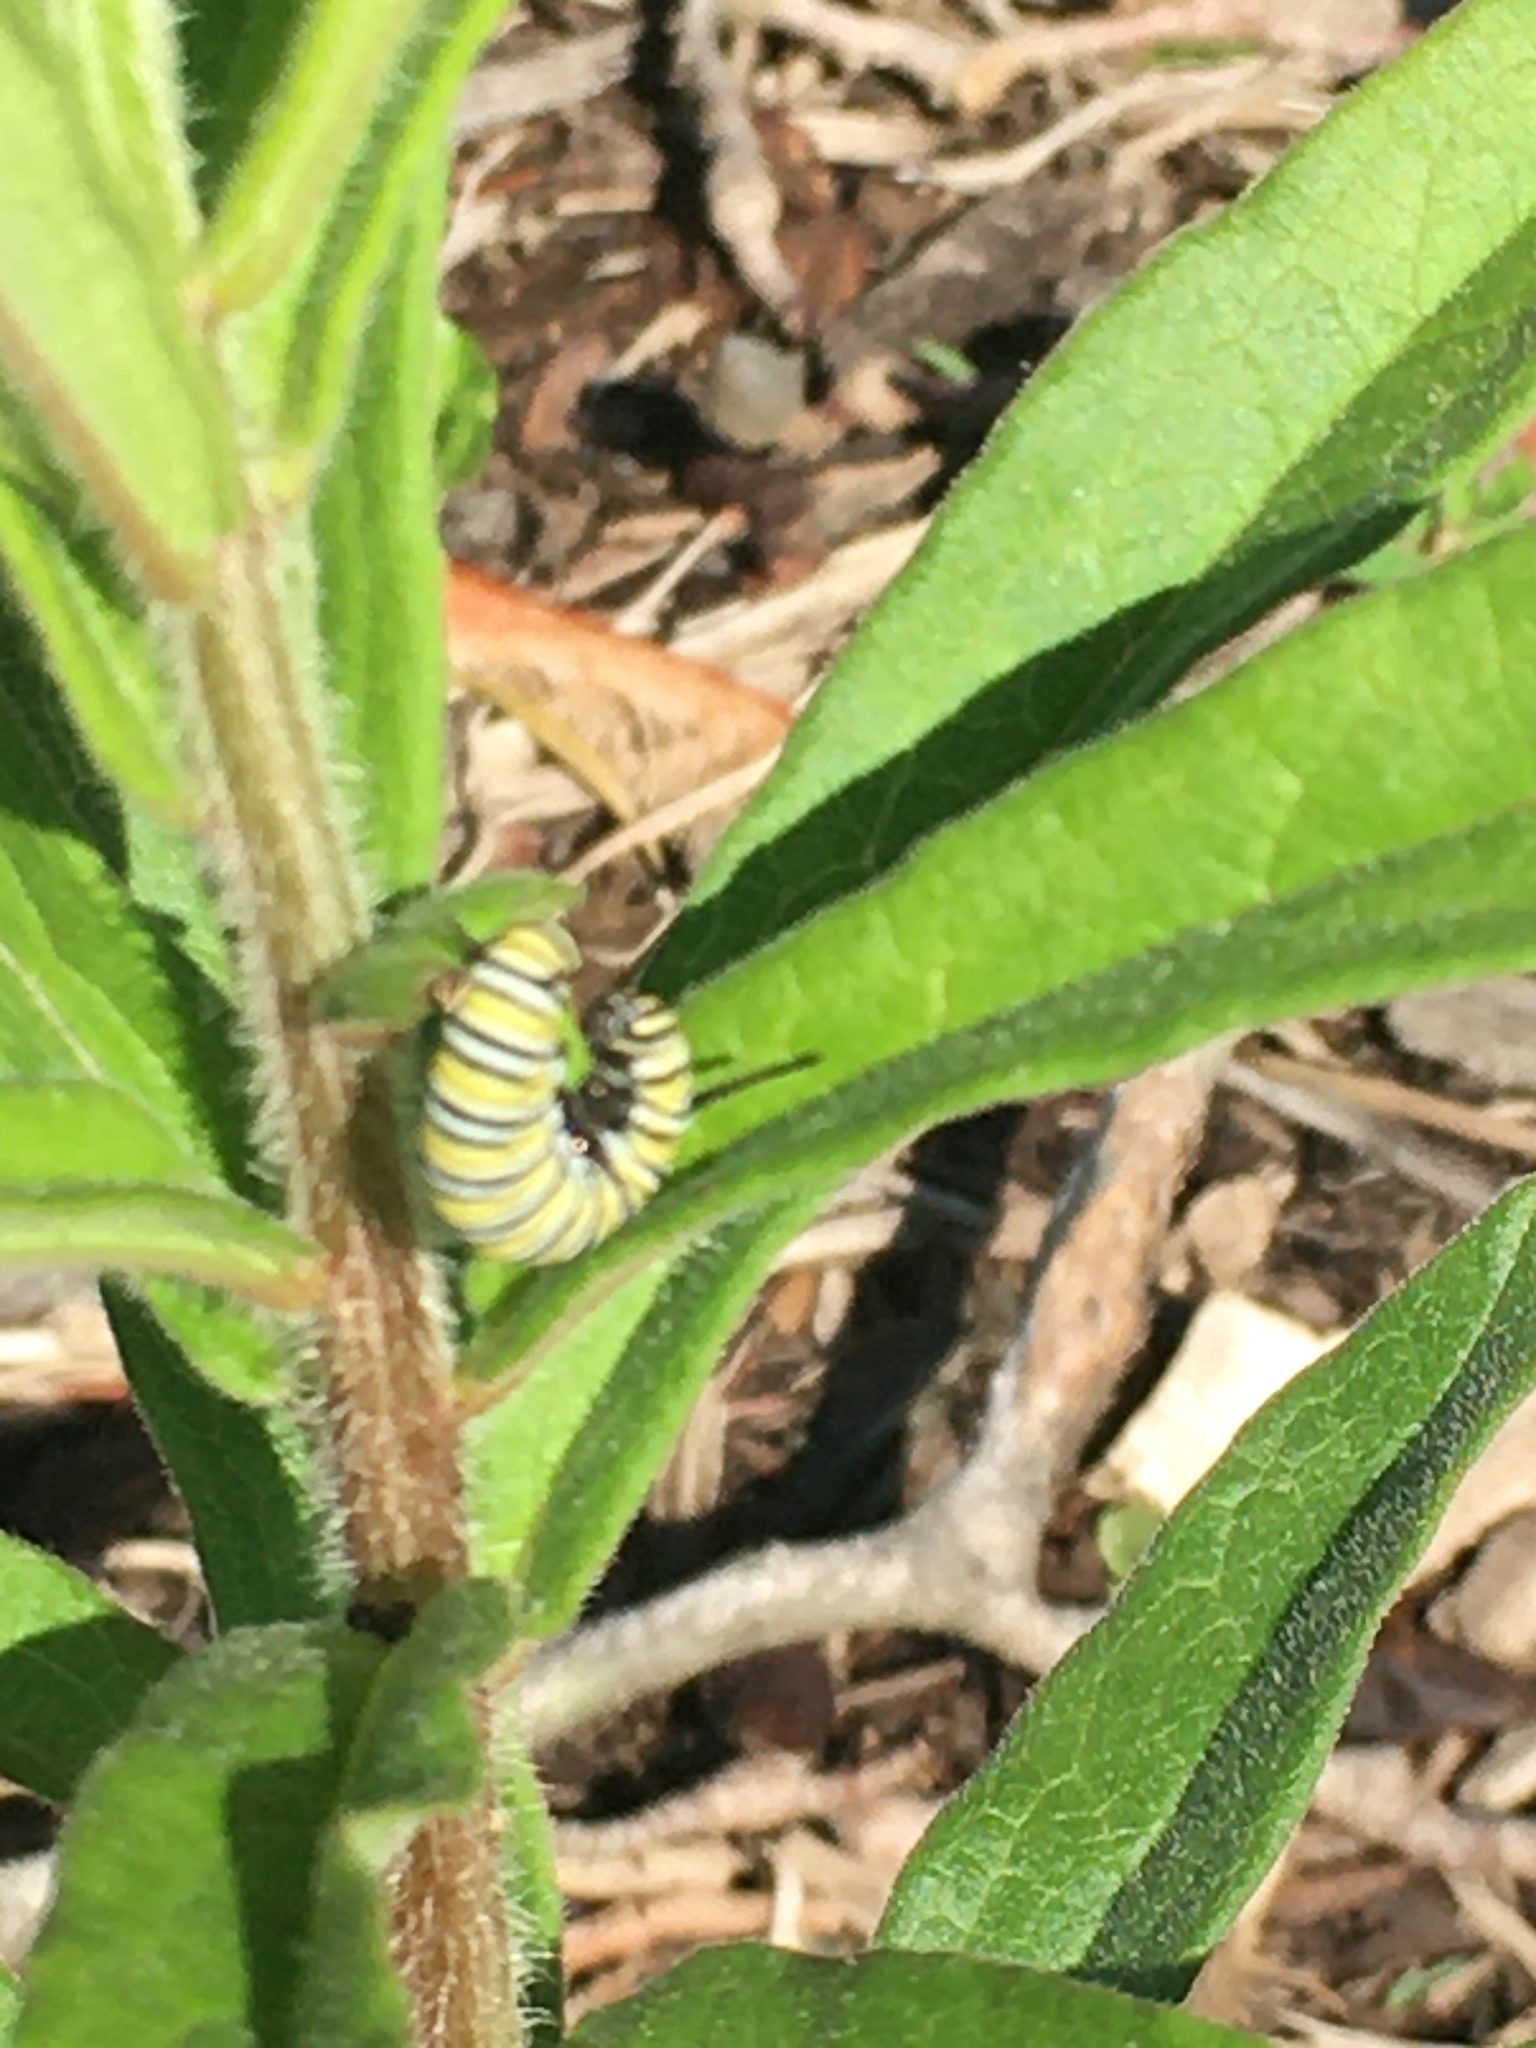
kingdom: Animalia
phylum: Arthropoda
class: Insecta
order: Lepidoptera
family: Nymphalidae
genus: Danaus
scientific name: Danaus plexippus
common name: Monarch
